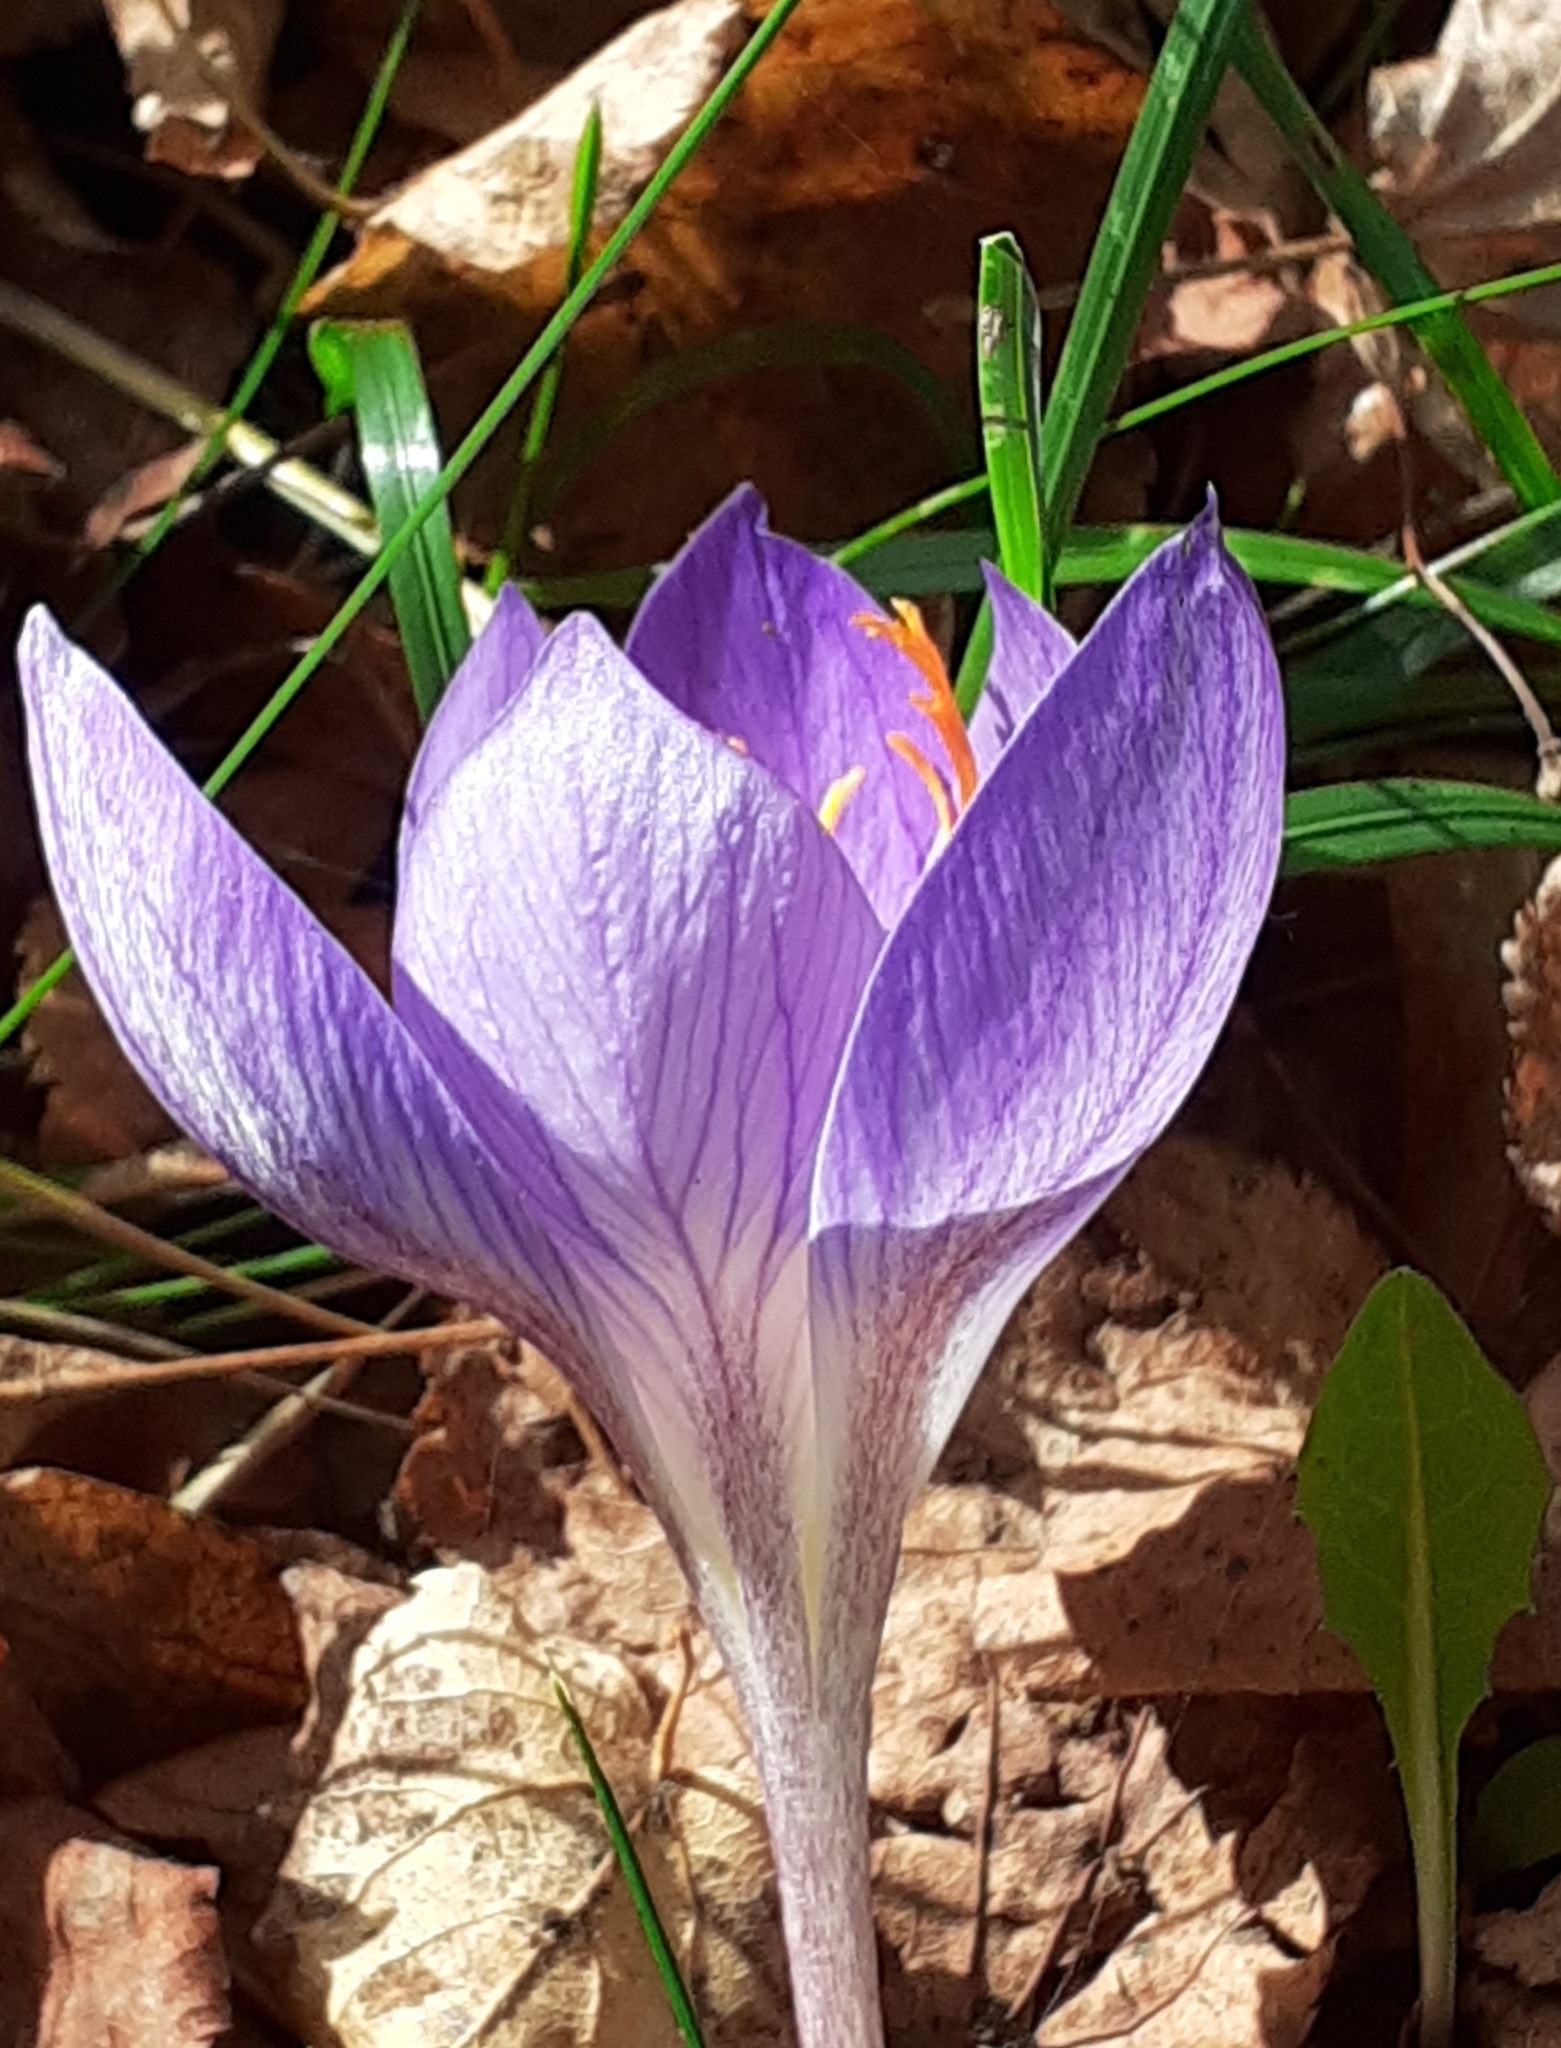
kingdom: Plantae
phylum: Tracheophyta
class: Liliopsida
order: Asparagales
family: Iridaceae
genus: Crocus
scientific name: Crocus speciosus
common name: Bieberstein's crocus
